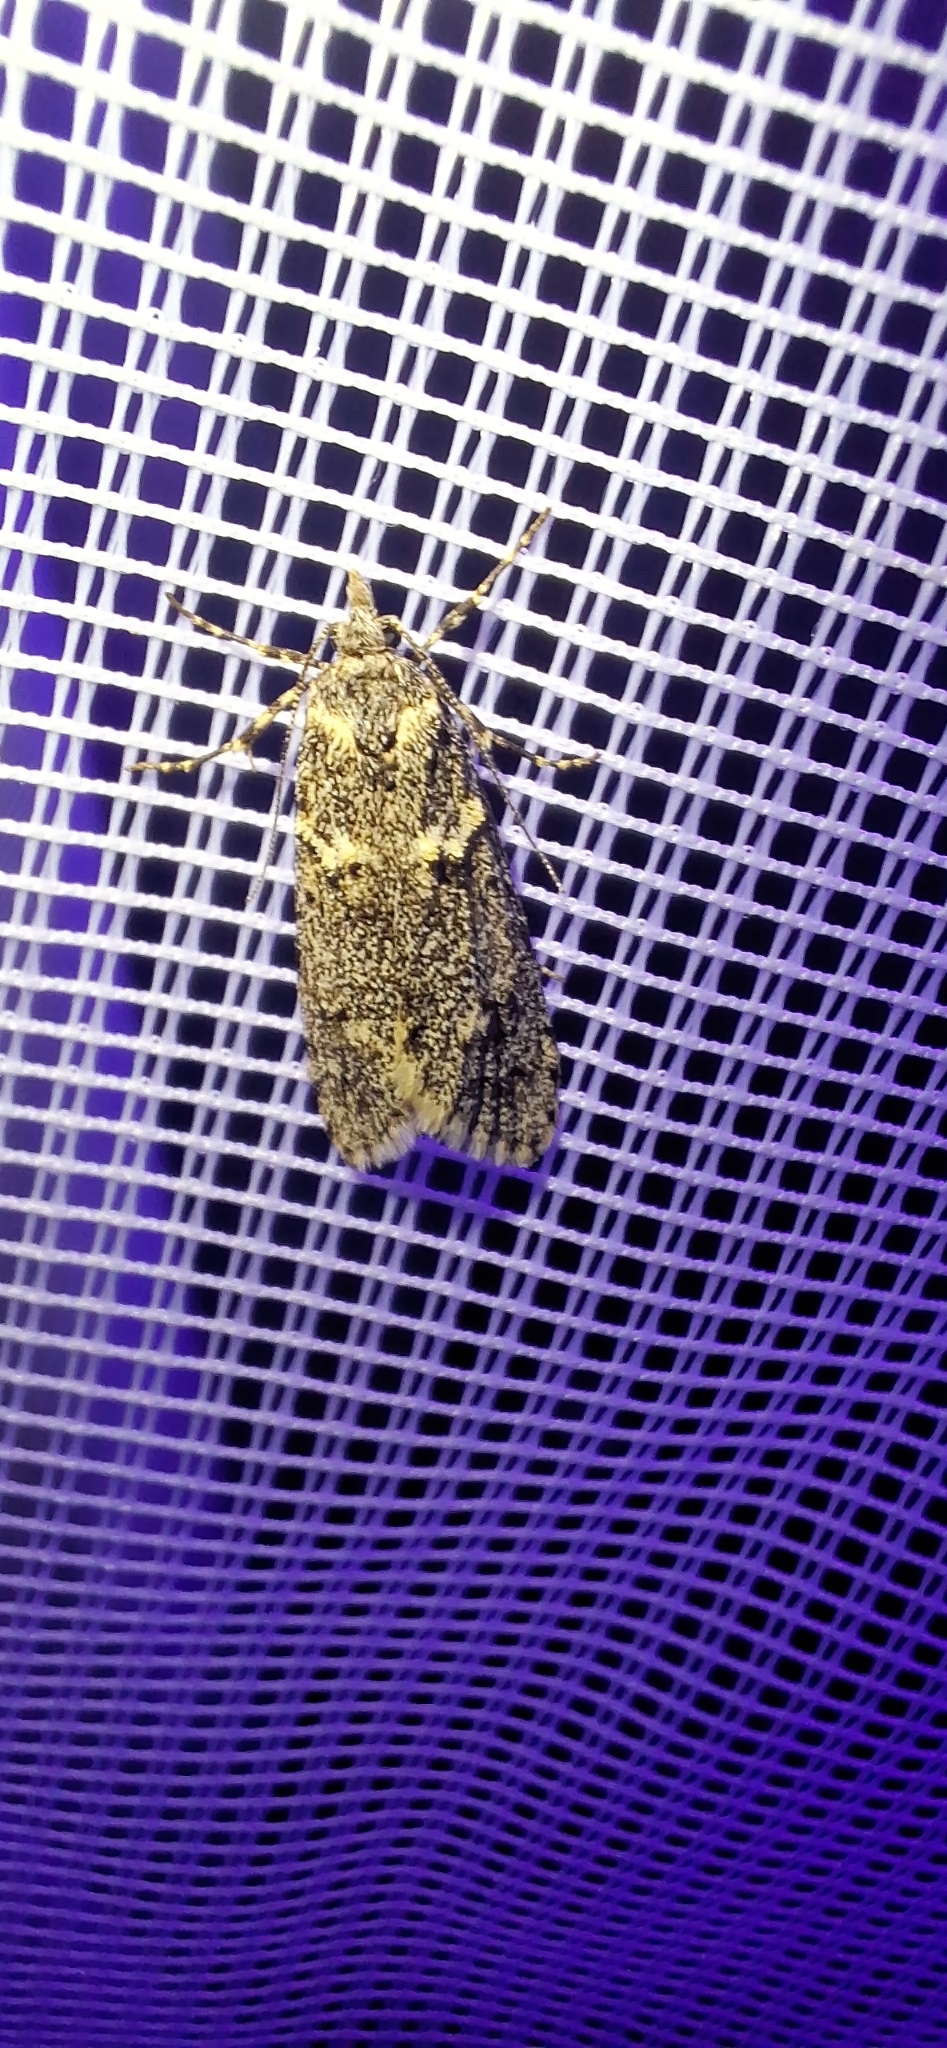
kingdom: Animalia
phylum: Arthropoda
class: Insecta
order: Lepidoptera
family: Lypusidae
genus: Diurnea
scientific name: Diurnea fagella
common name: March tubic
